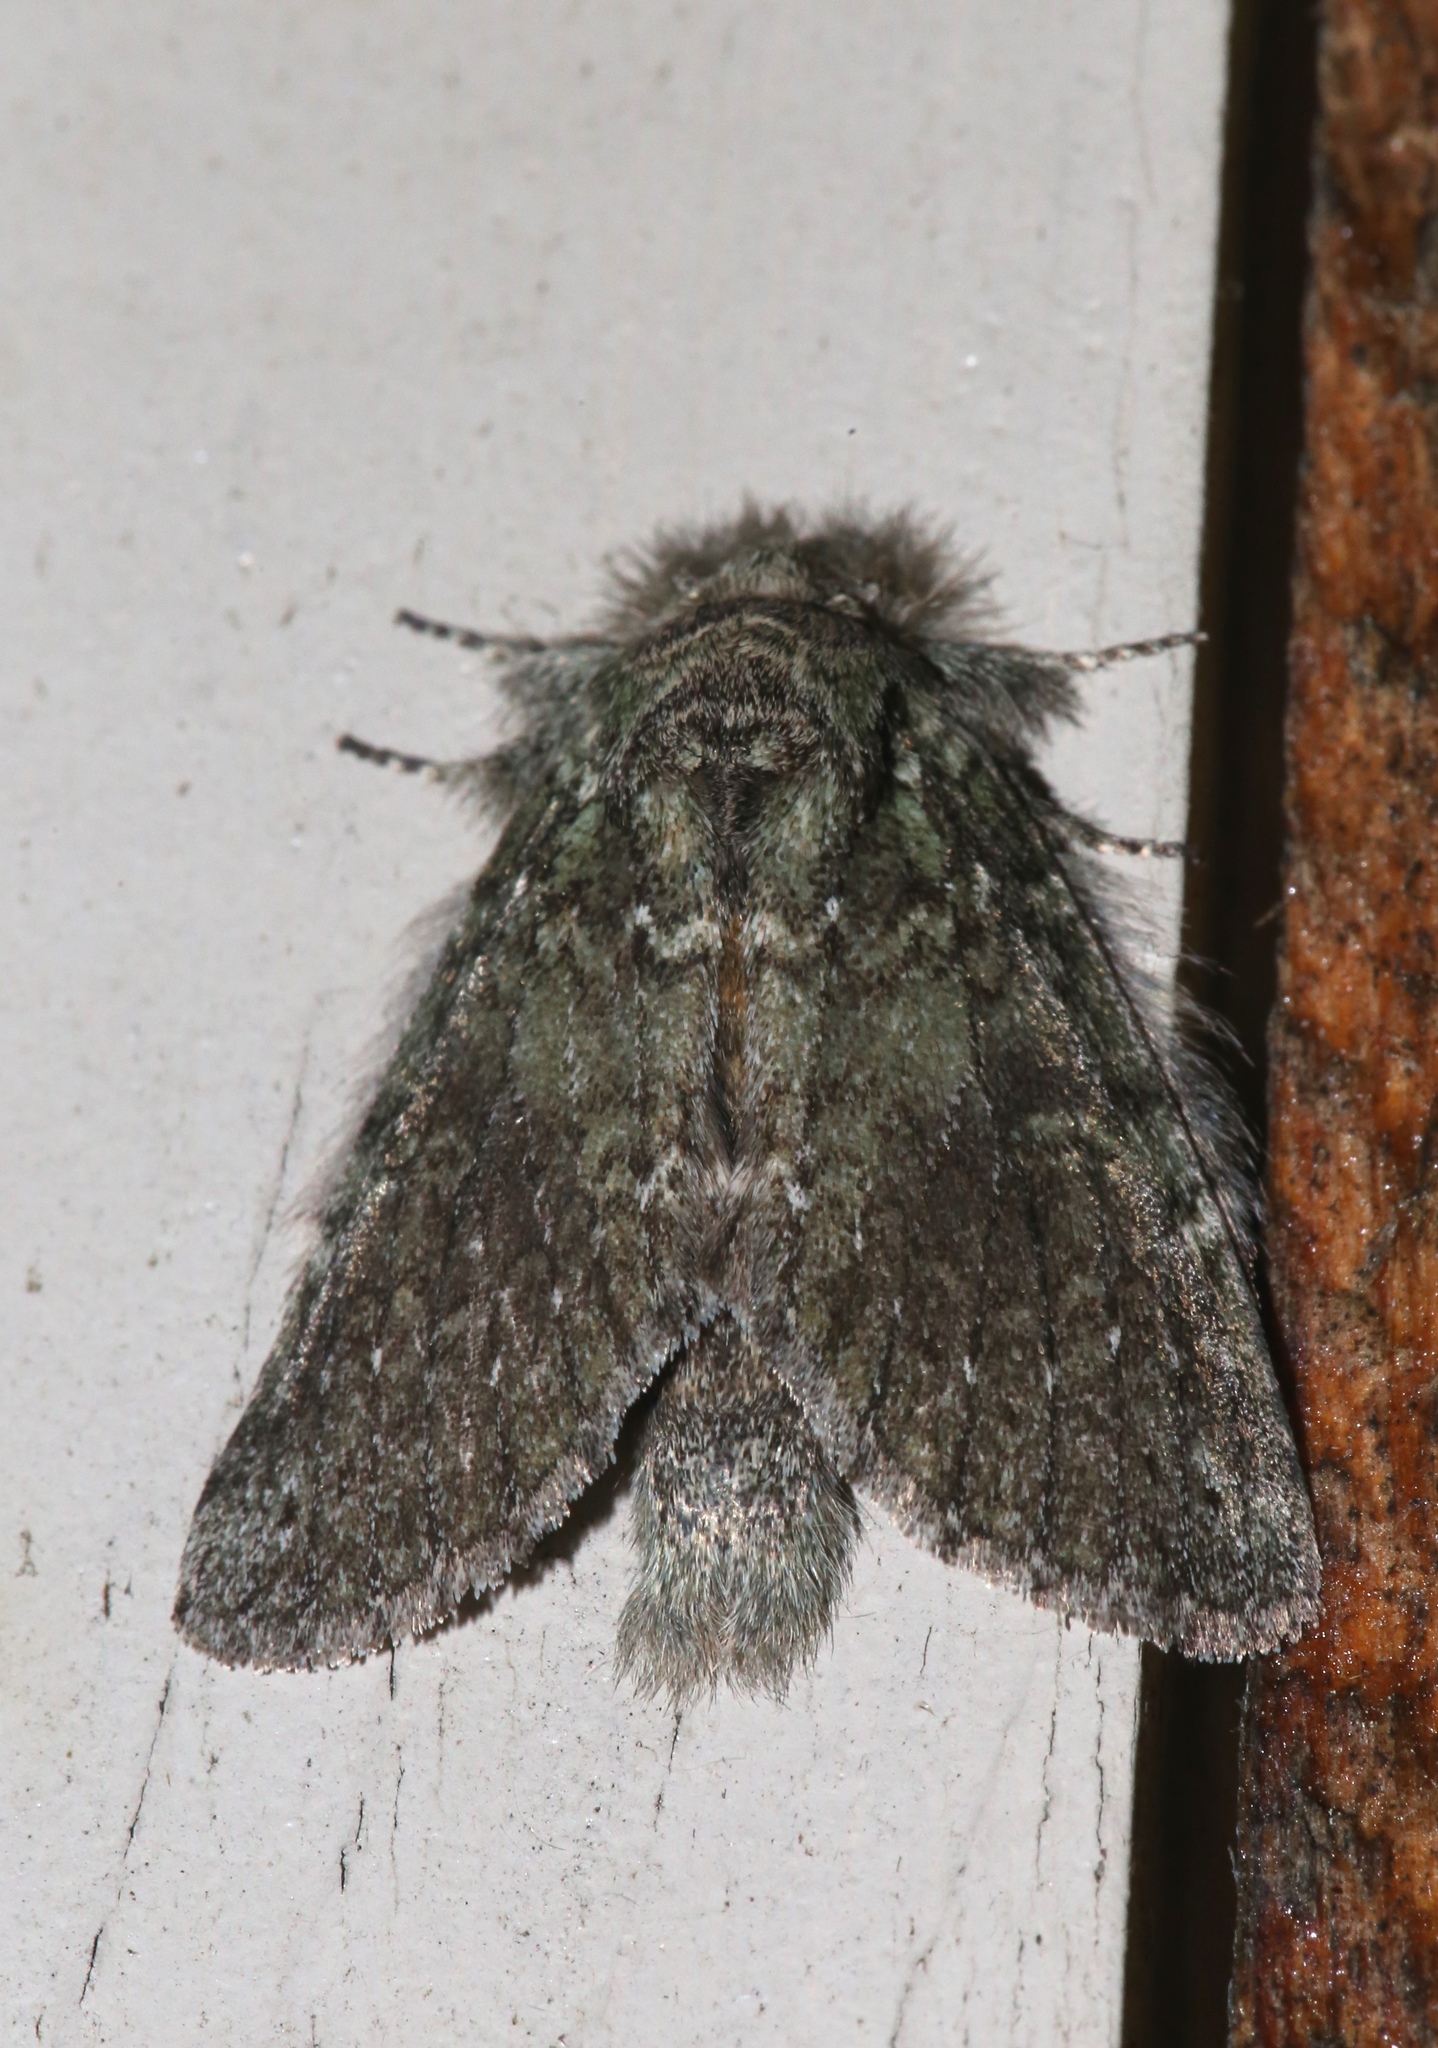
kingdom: Animalia
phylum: Arthropoda
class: Insecta
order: Lepidoptera
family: Notodontidae
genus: Disphragis
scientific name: Disphragis Cecrita guttivitta
